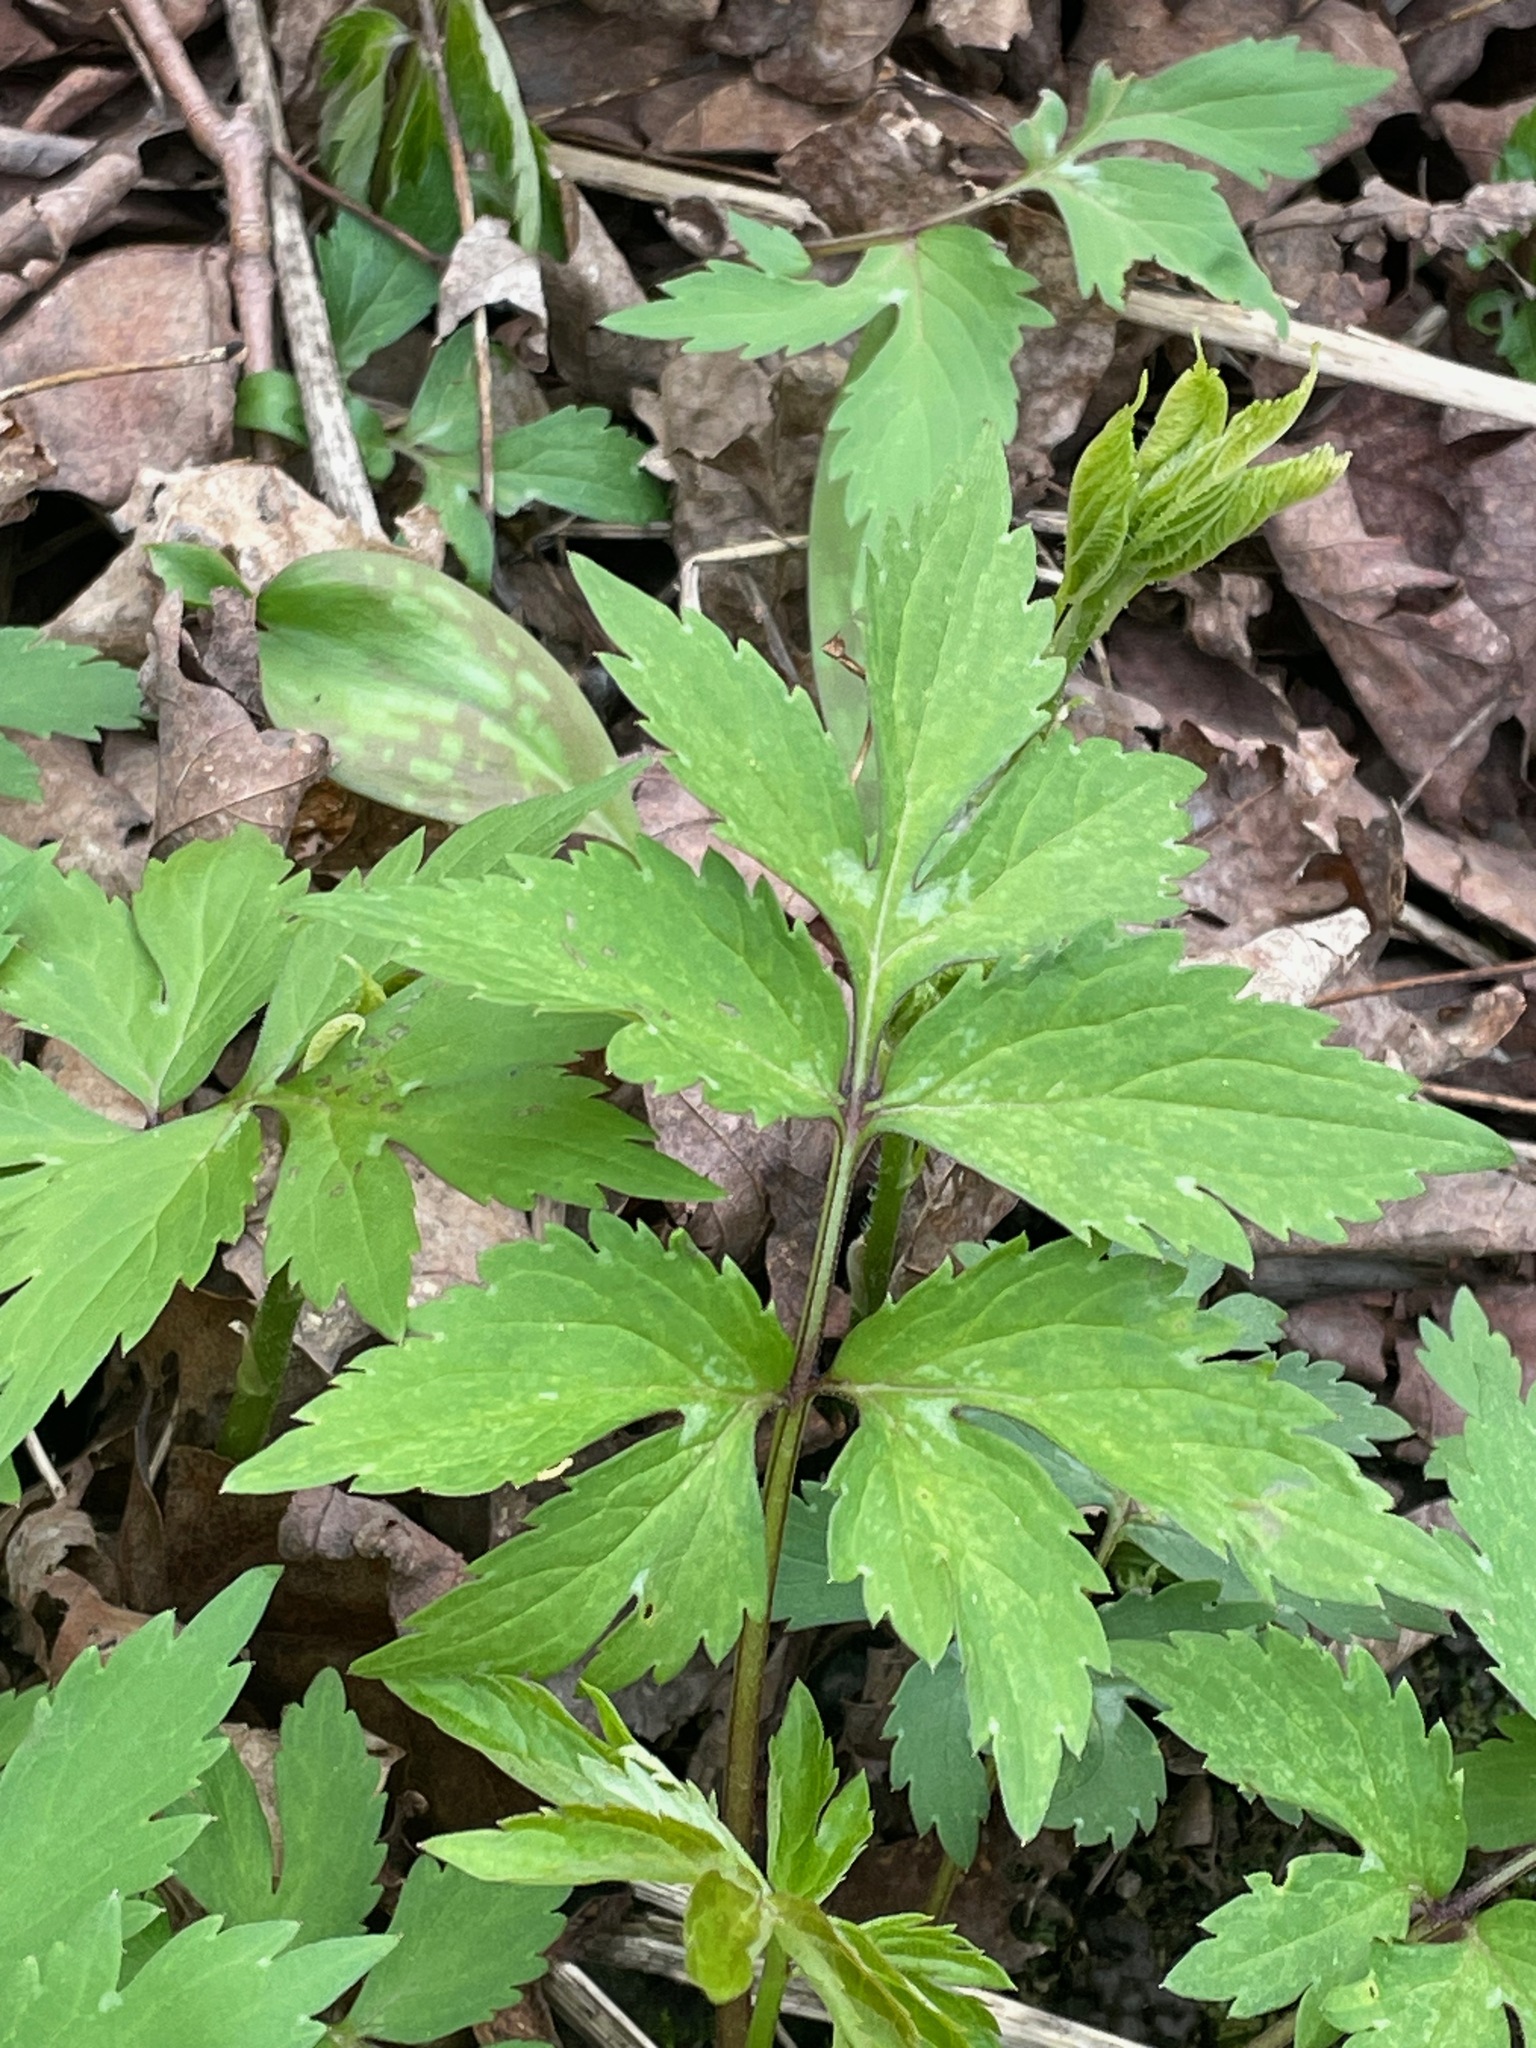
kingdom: Plantae
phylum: Tracheophyta
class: Magnoliopsida
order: Boraginales
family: Hydrophyllaceae
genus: Hydrophyllum
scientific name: Hydrophyllum virginianum
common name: Virginia waterleaf
